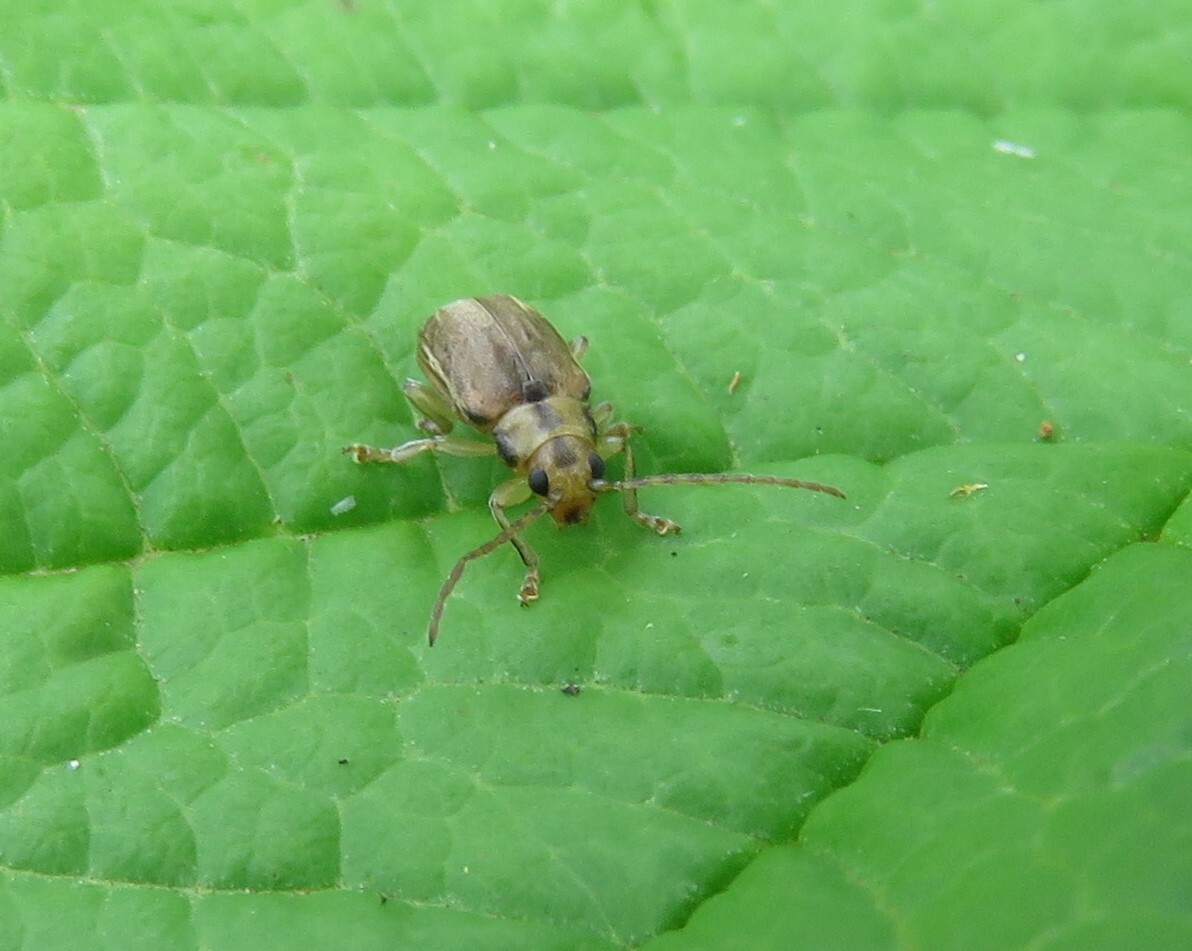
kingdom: Animalia
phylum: Arthropoda
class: Insecta
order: Coleoptera
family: Chrysomelidae
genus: Pyrrhalta
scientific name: Pyrrhalta viburni
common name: Guelder-rose leaf beetle
